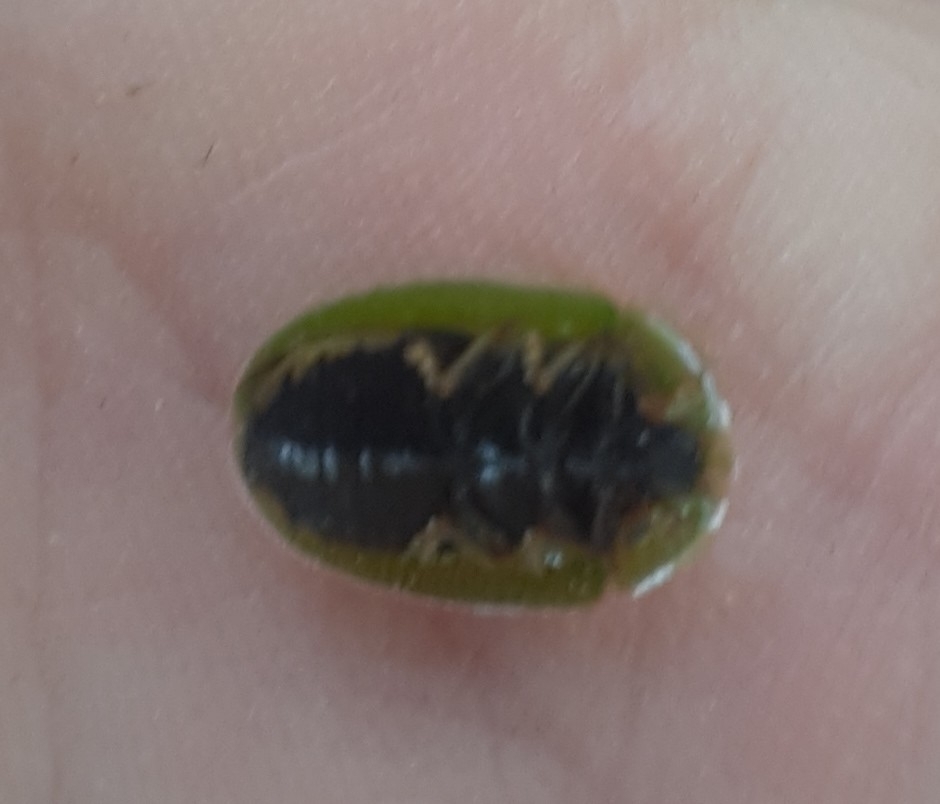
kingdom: Animalia
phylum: Arthropoda
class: Insecta
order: Coleoptera
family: Chrysomelidae
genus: Cassida
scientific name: Cassida rubiginosa
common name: Thistle tortoise beetle
